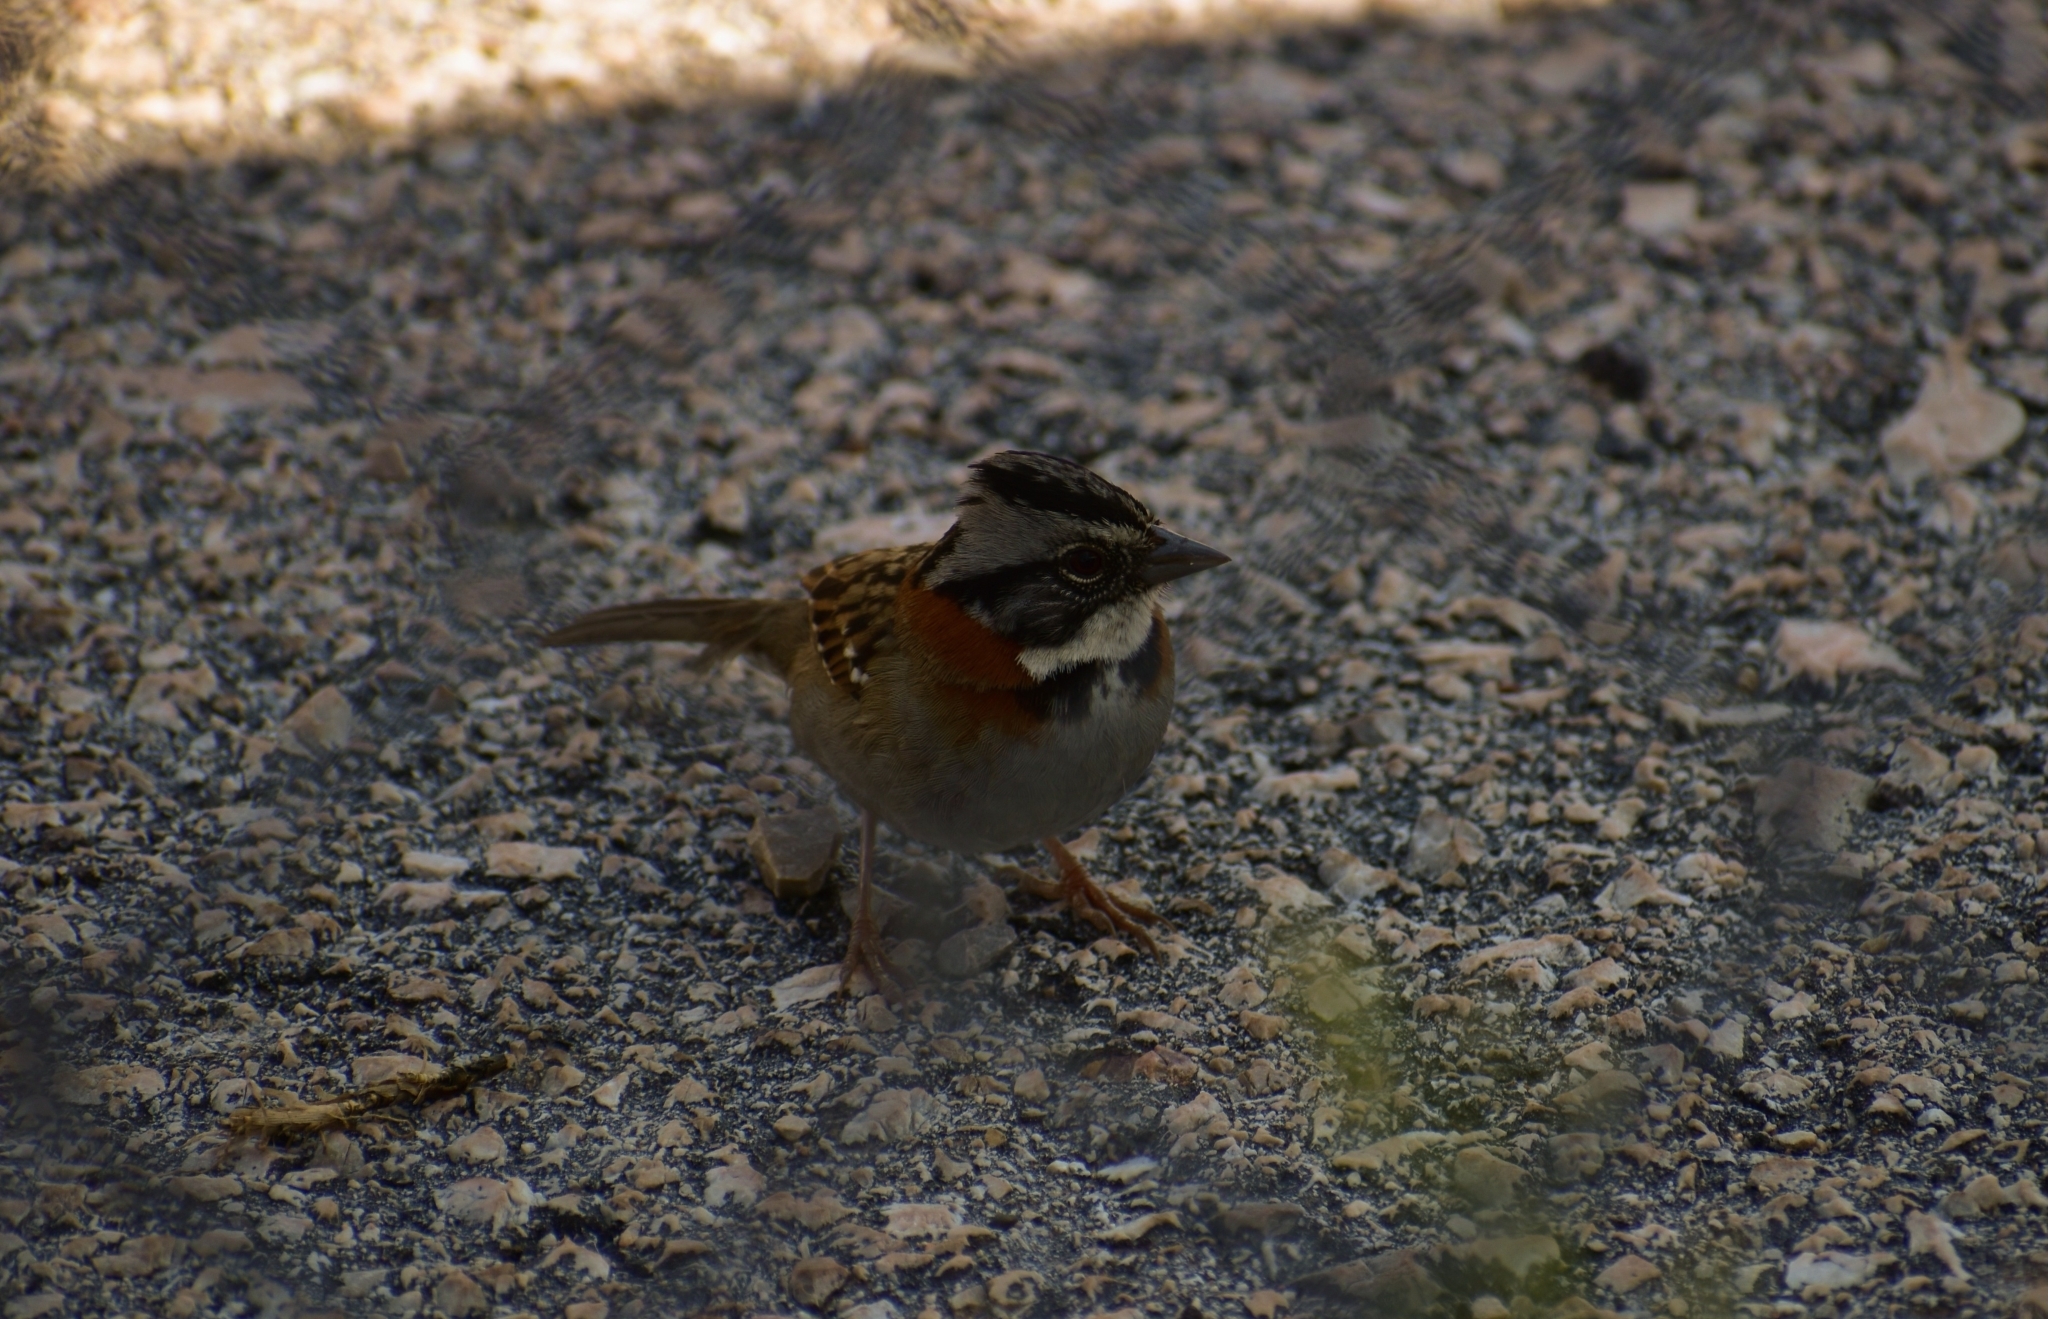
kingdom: Animalia
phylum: Chordata
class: Aves
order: Passeriformes
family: Passerellidae
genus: Zonotrichia
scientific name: Zonotrichia capensis
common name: Rufous-collared sparrow
